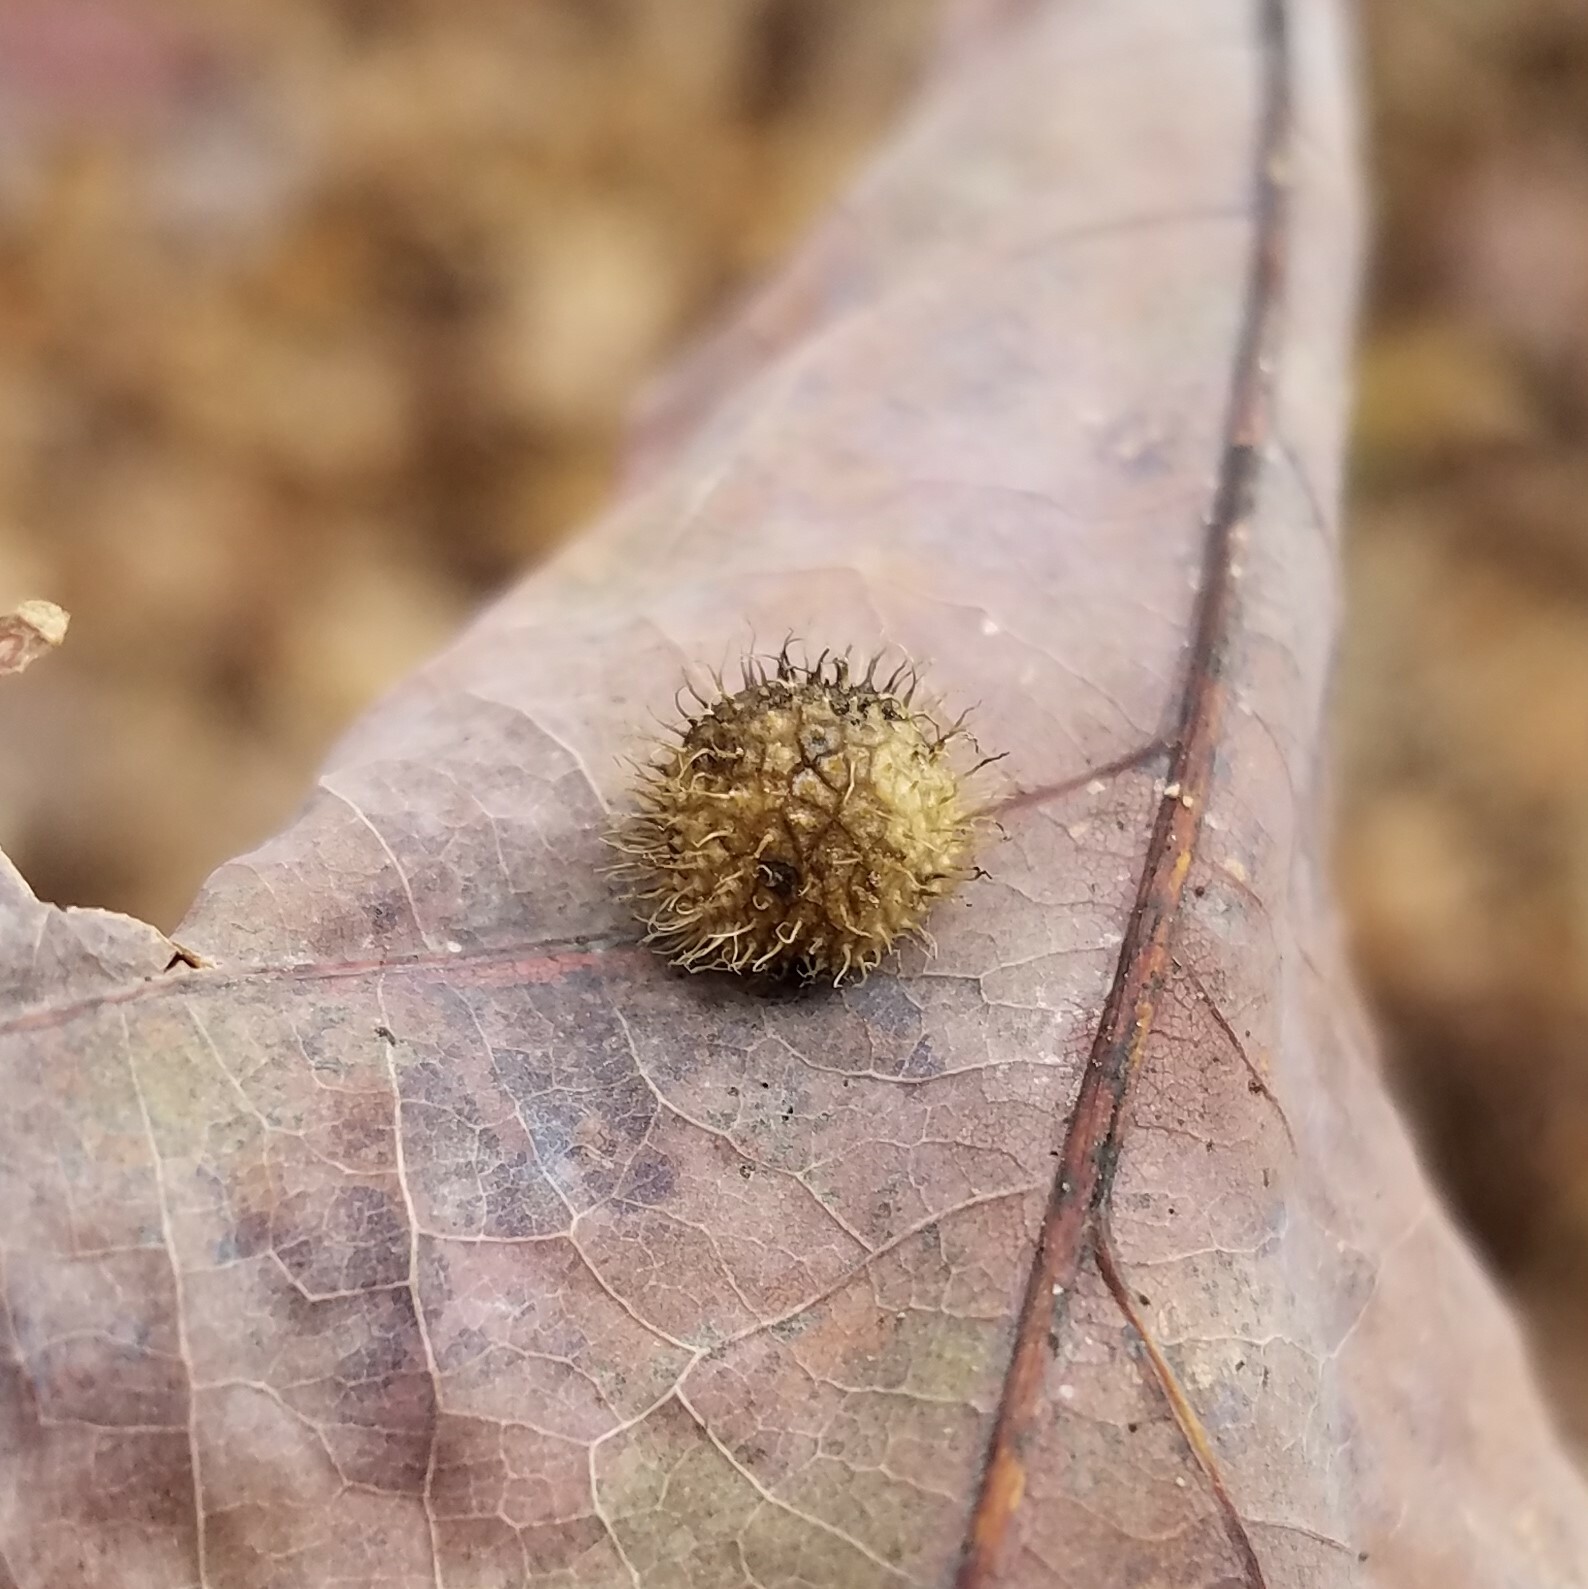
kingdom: Animalia
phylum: Arthropoda
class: Insecta
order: Hymenoptera
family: Cynipidae
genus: Acraspis
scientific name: Acraspis erinacei
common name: Hedgehog gall wasp
